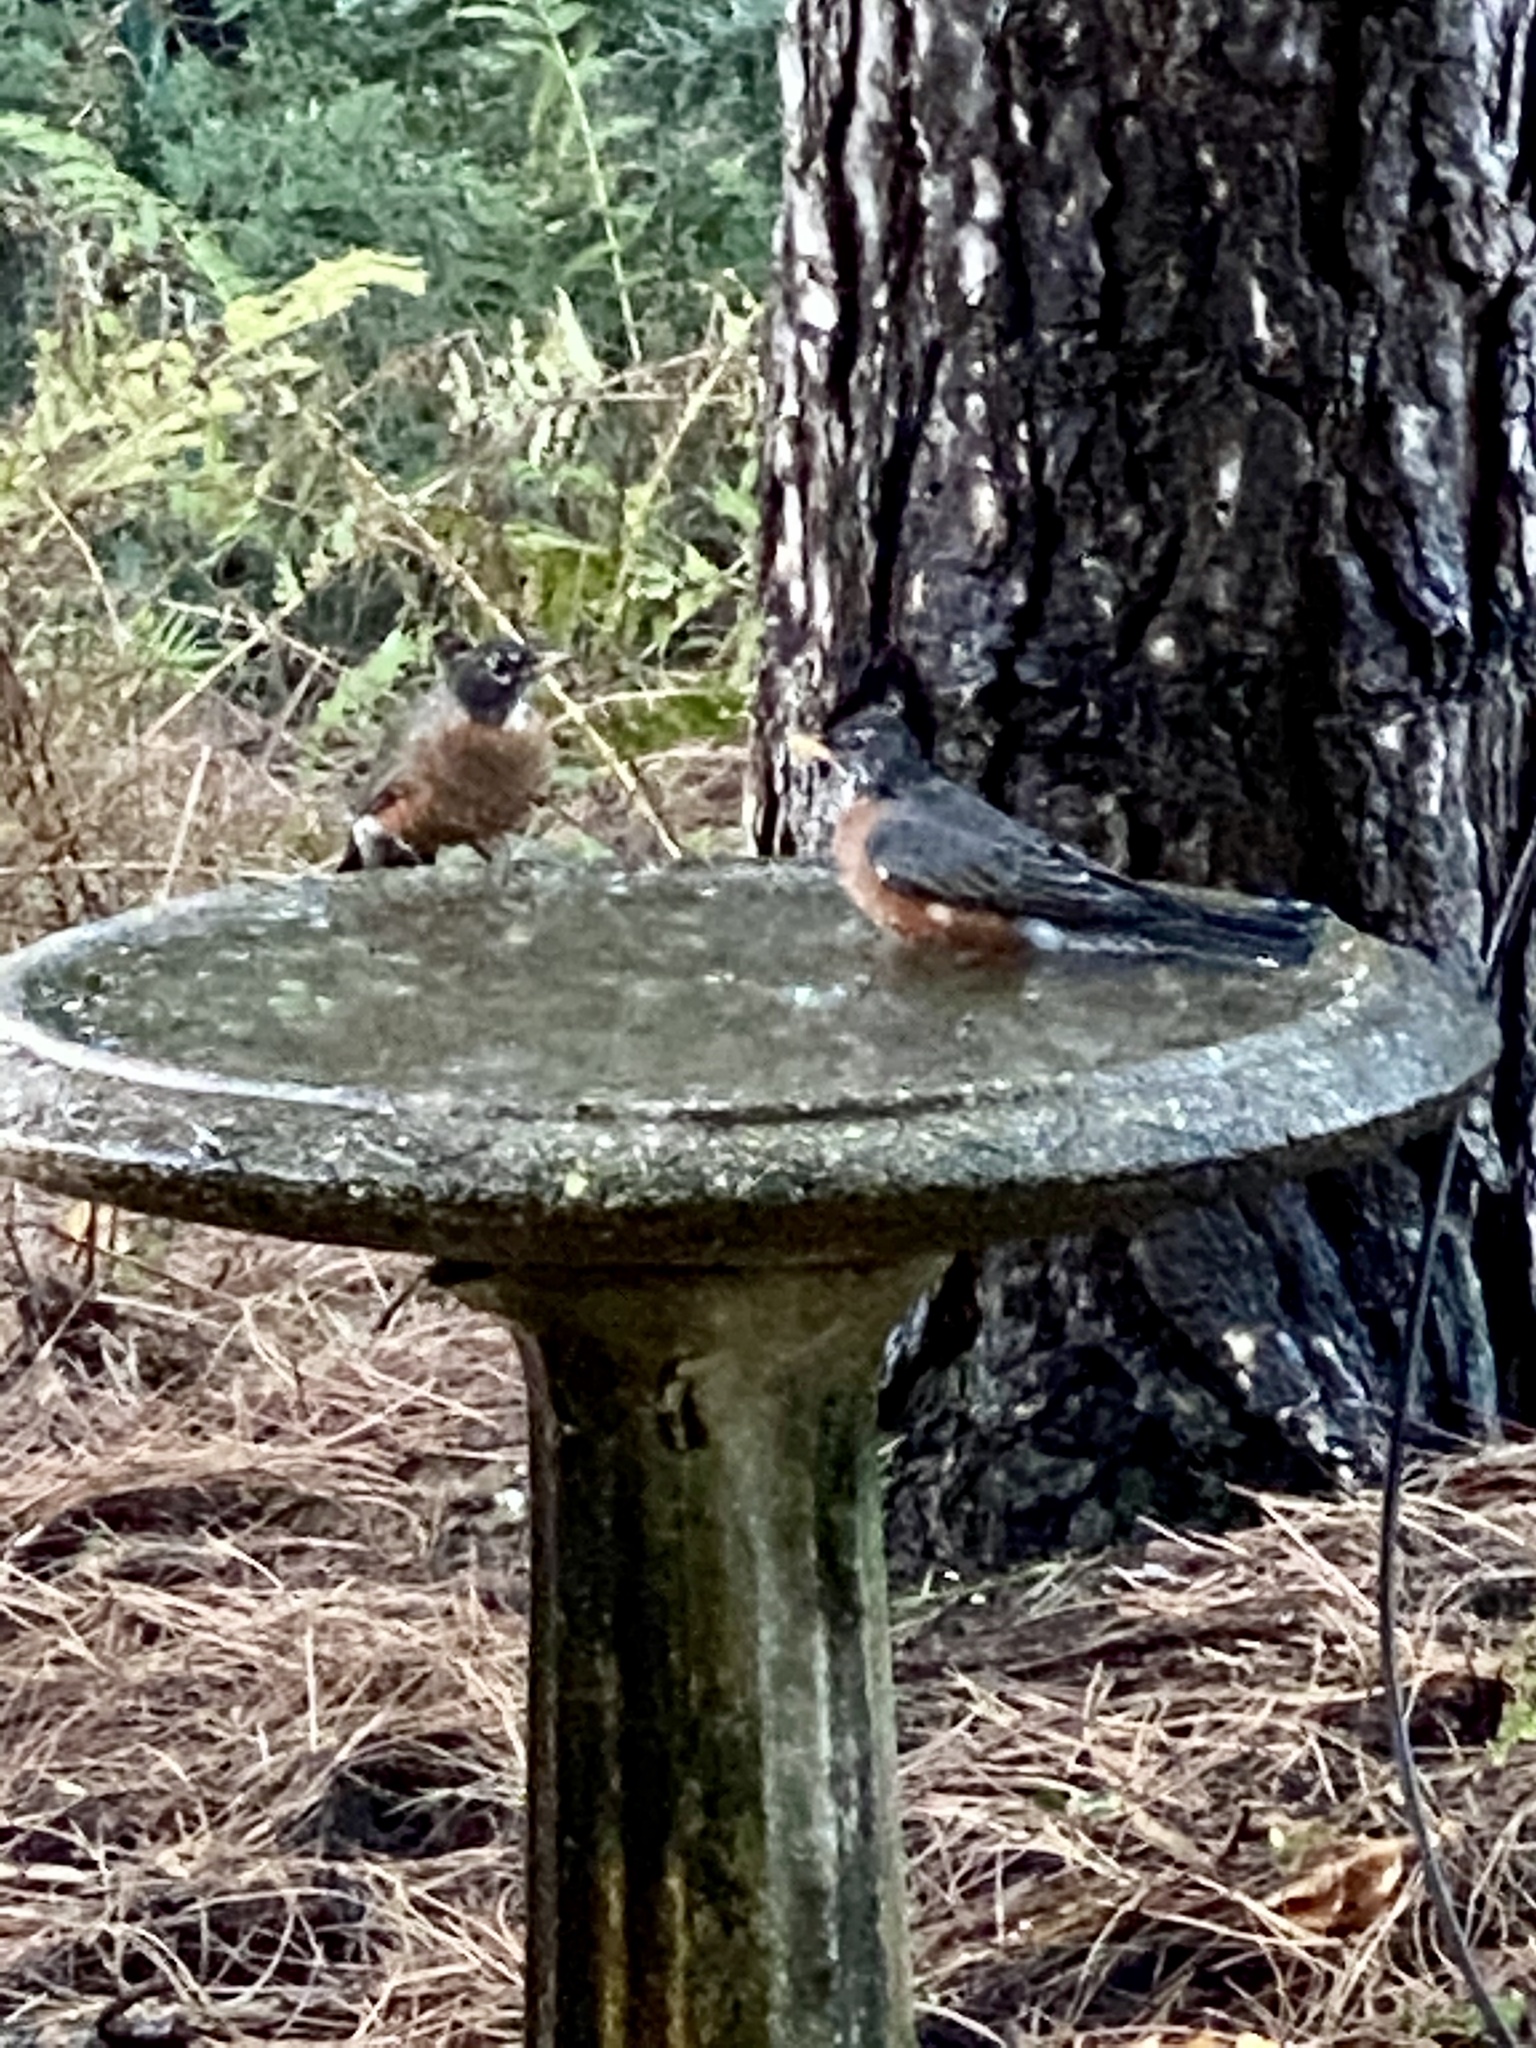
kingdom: Animalia
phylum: Chordata
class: Aves
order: Passeriformes
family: Turdidae
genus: Turdus
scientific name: Turdus migratorius
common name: American robin
